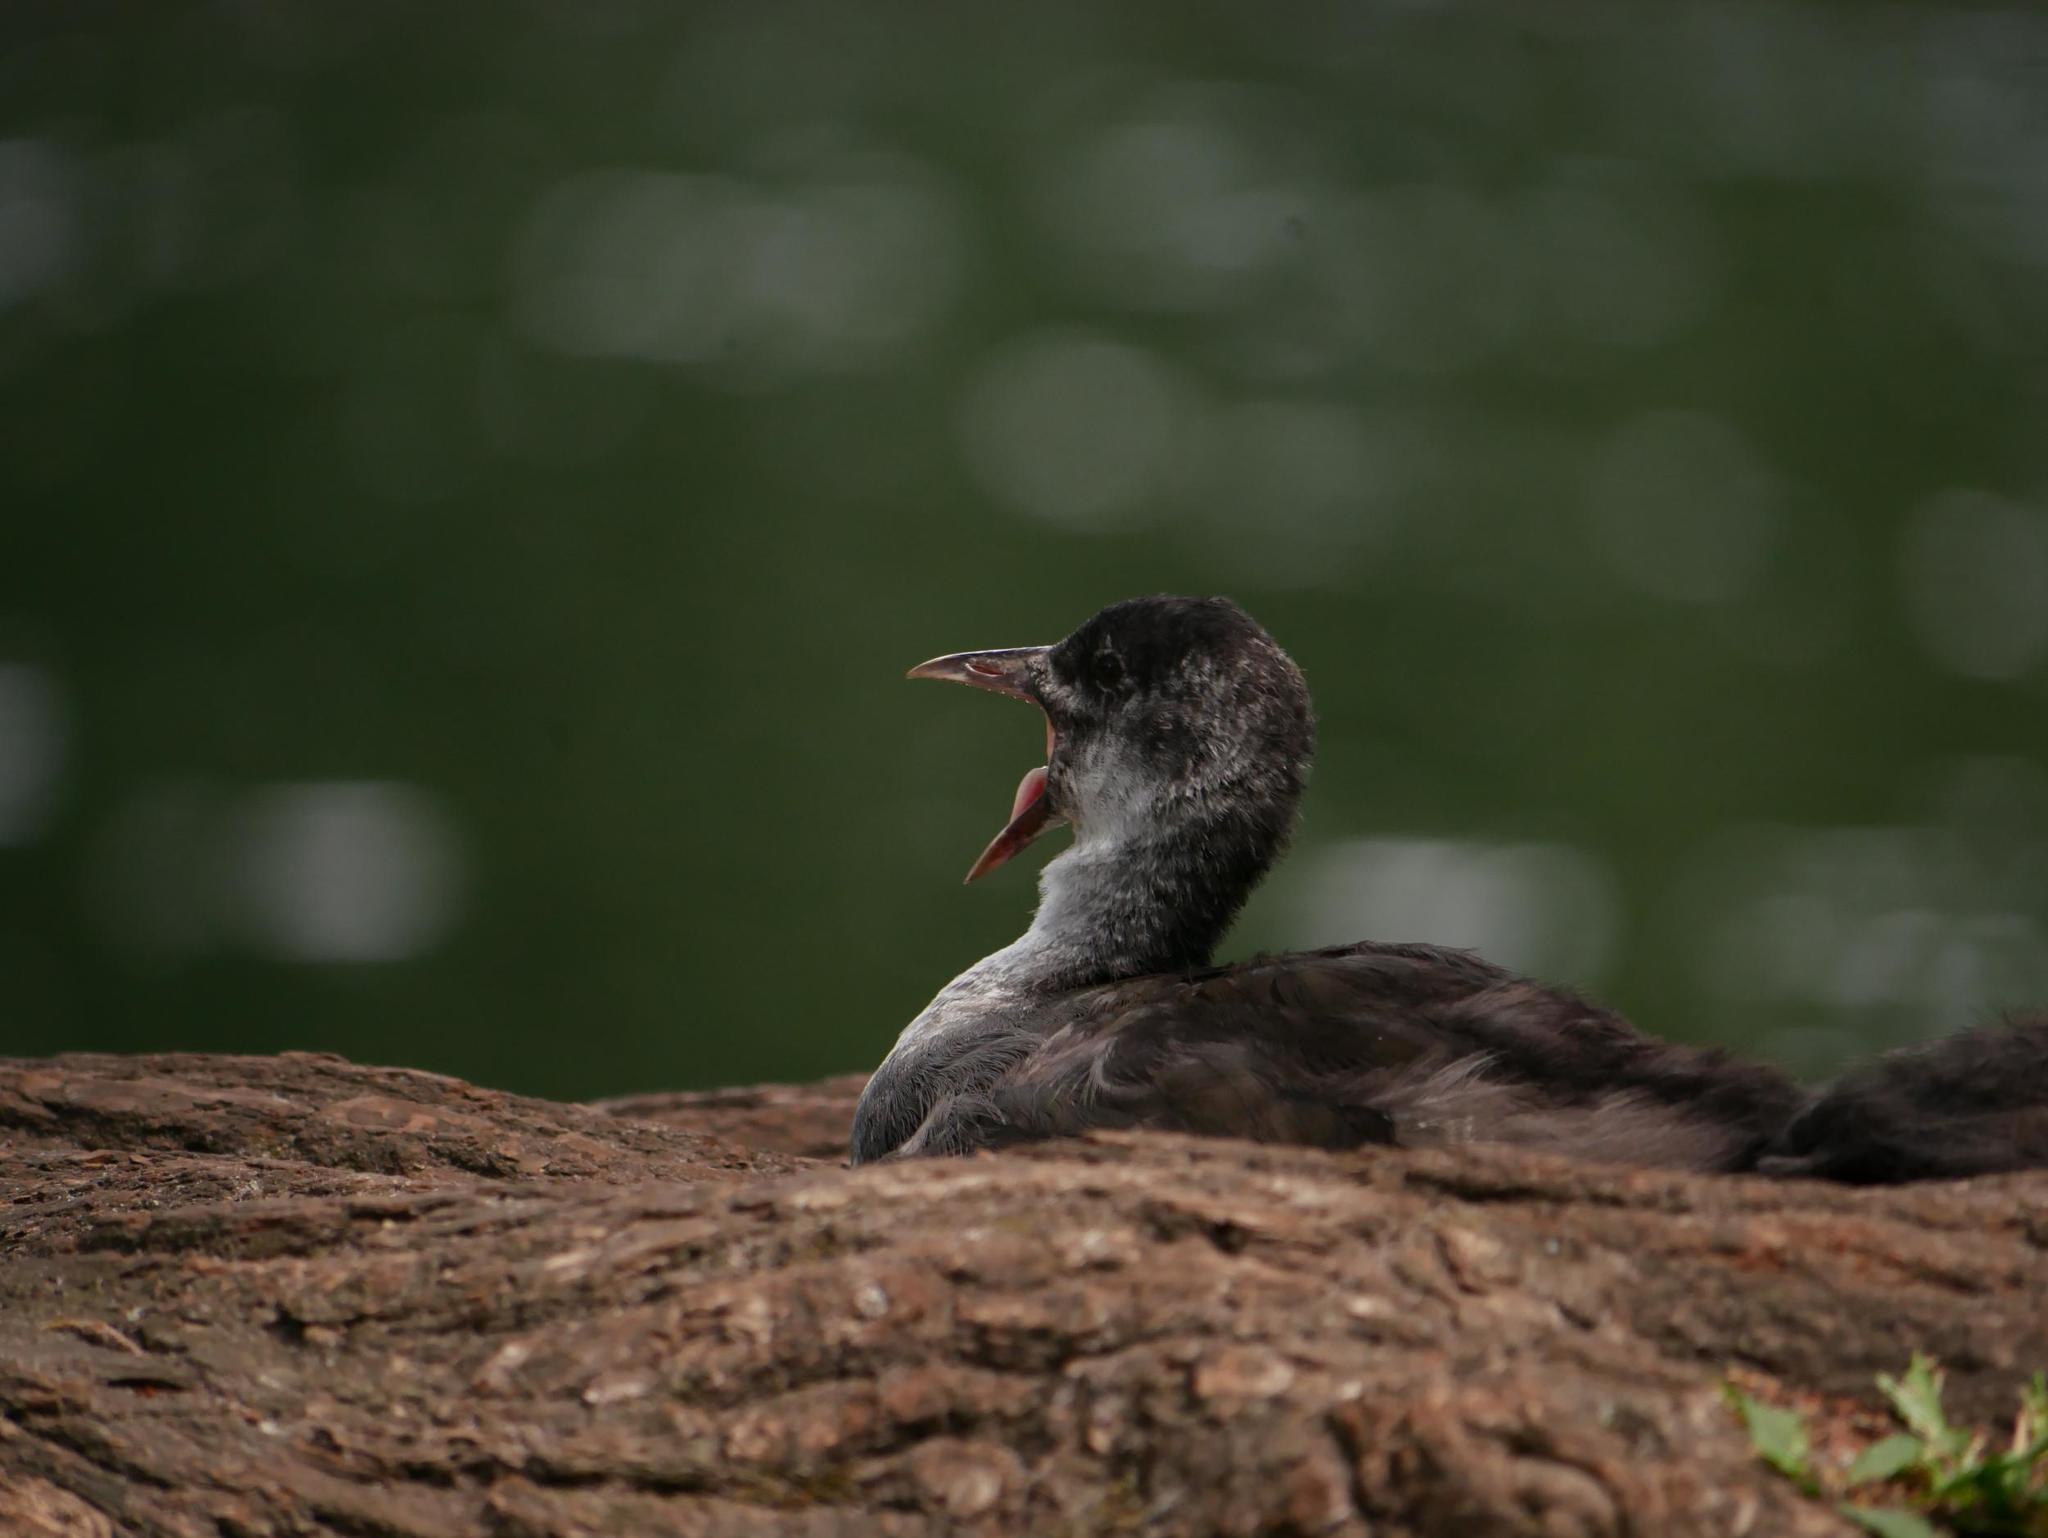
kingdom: Animalia
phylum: Chordata
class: Aves
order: Gruiformes
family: Rallidae
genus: Fulica
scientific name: Fulica atra
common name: Eurasian coot
